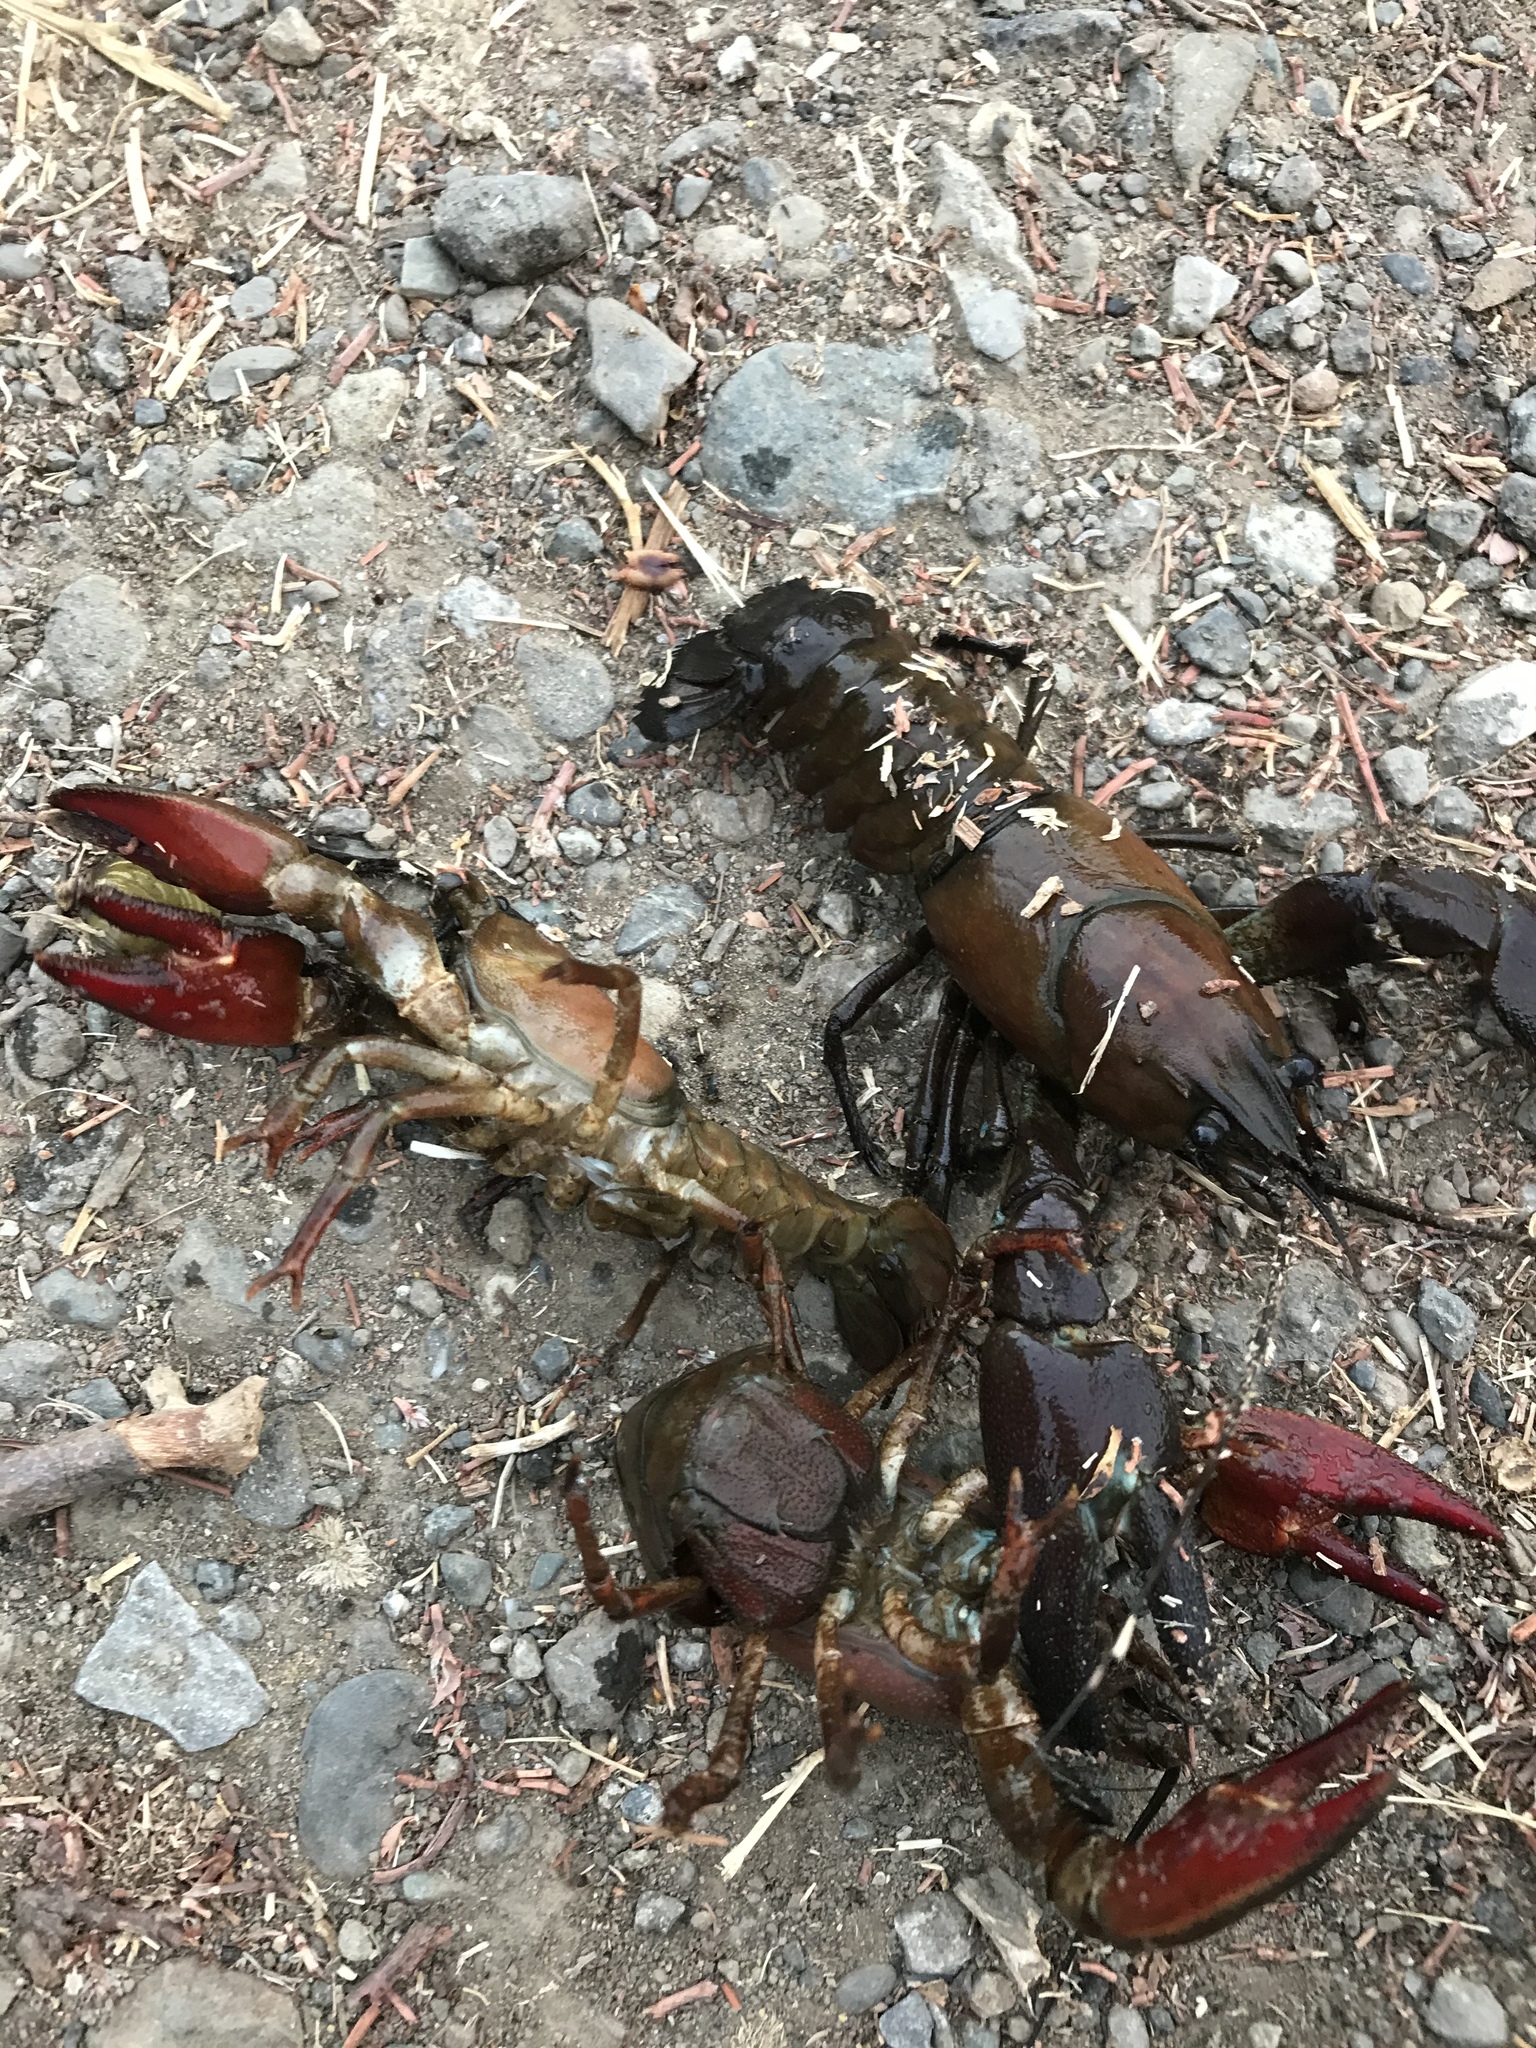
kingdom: Animalia
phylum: Arthropoda
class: Malacostraca
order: Decapoda
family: Astacidae
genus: Pacifastacus
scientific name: Pacifastacus leniusculus
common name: Signal crayfish
